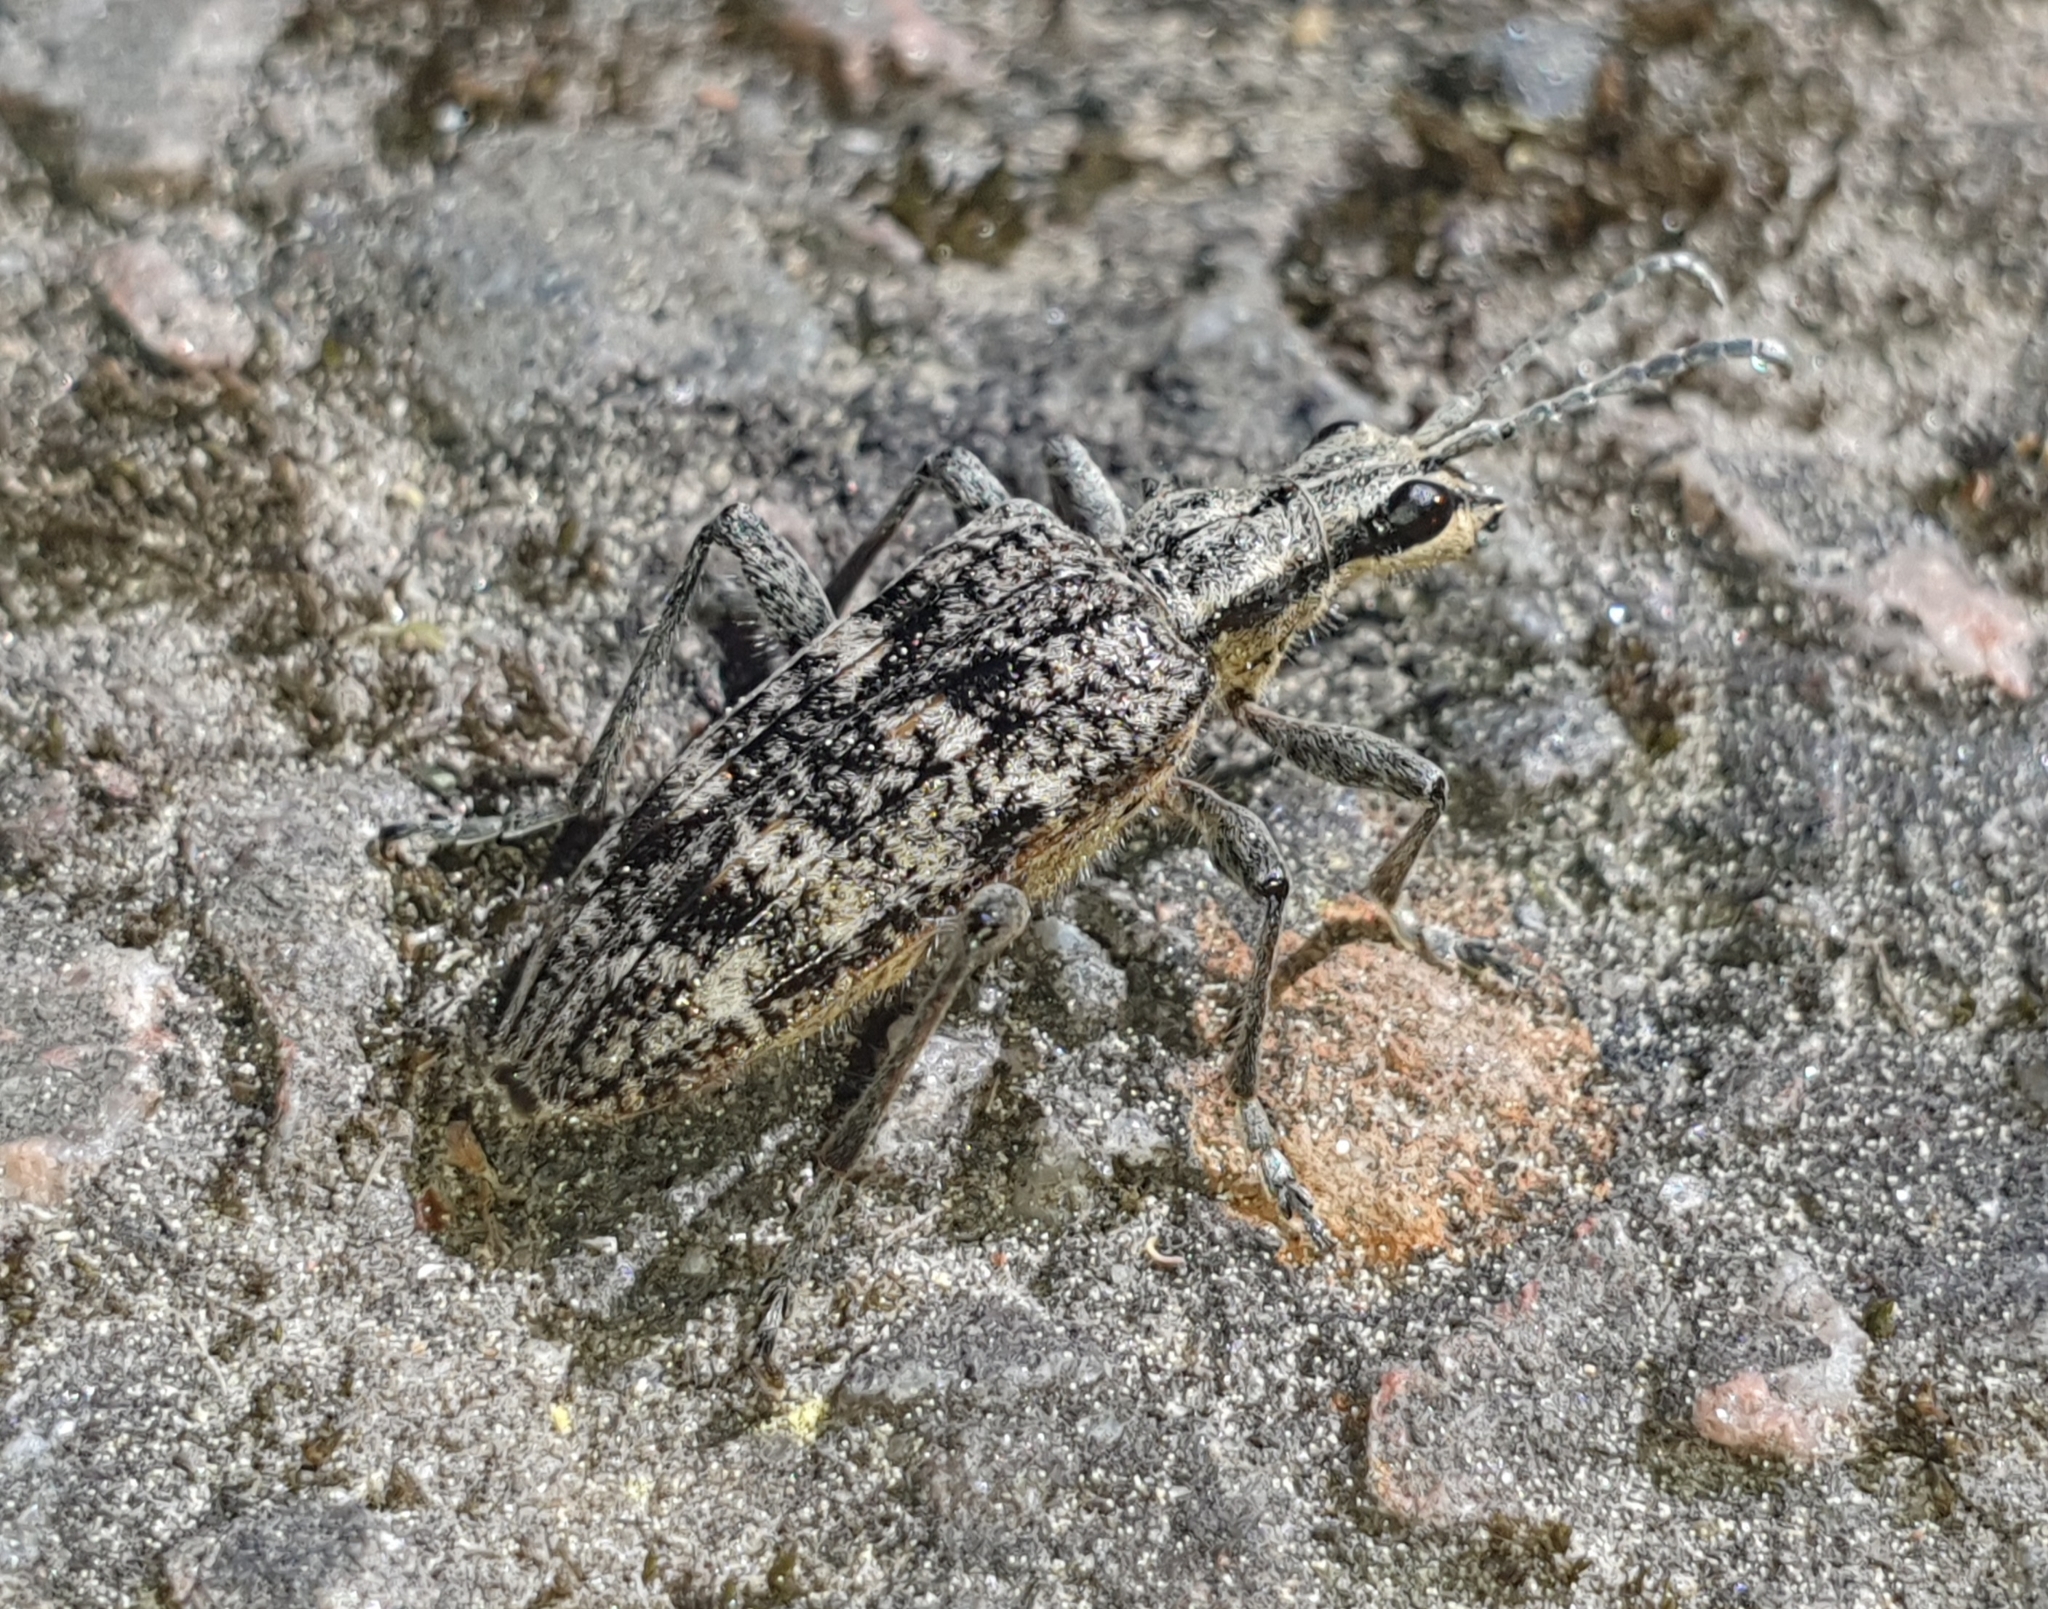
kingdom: Animalia
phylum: Arthropoda
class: Insecta
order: Coleoptera
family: Cerambycidae
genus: Rhagium
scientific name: Rhagium inquisitor
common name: Ribbed pine borer
